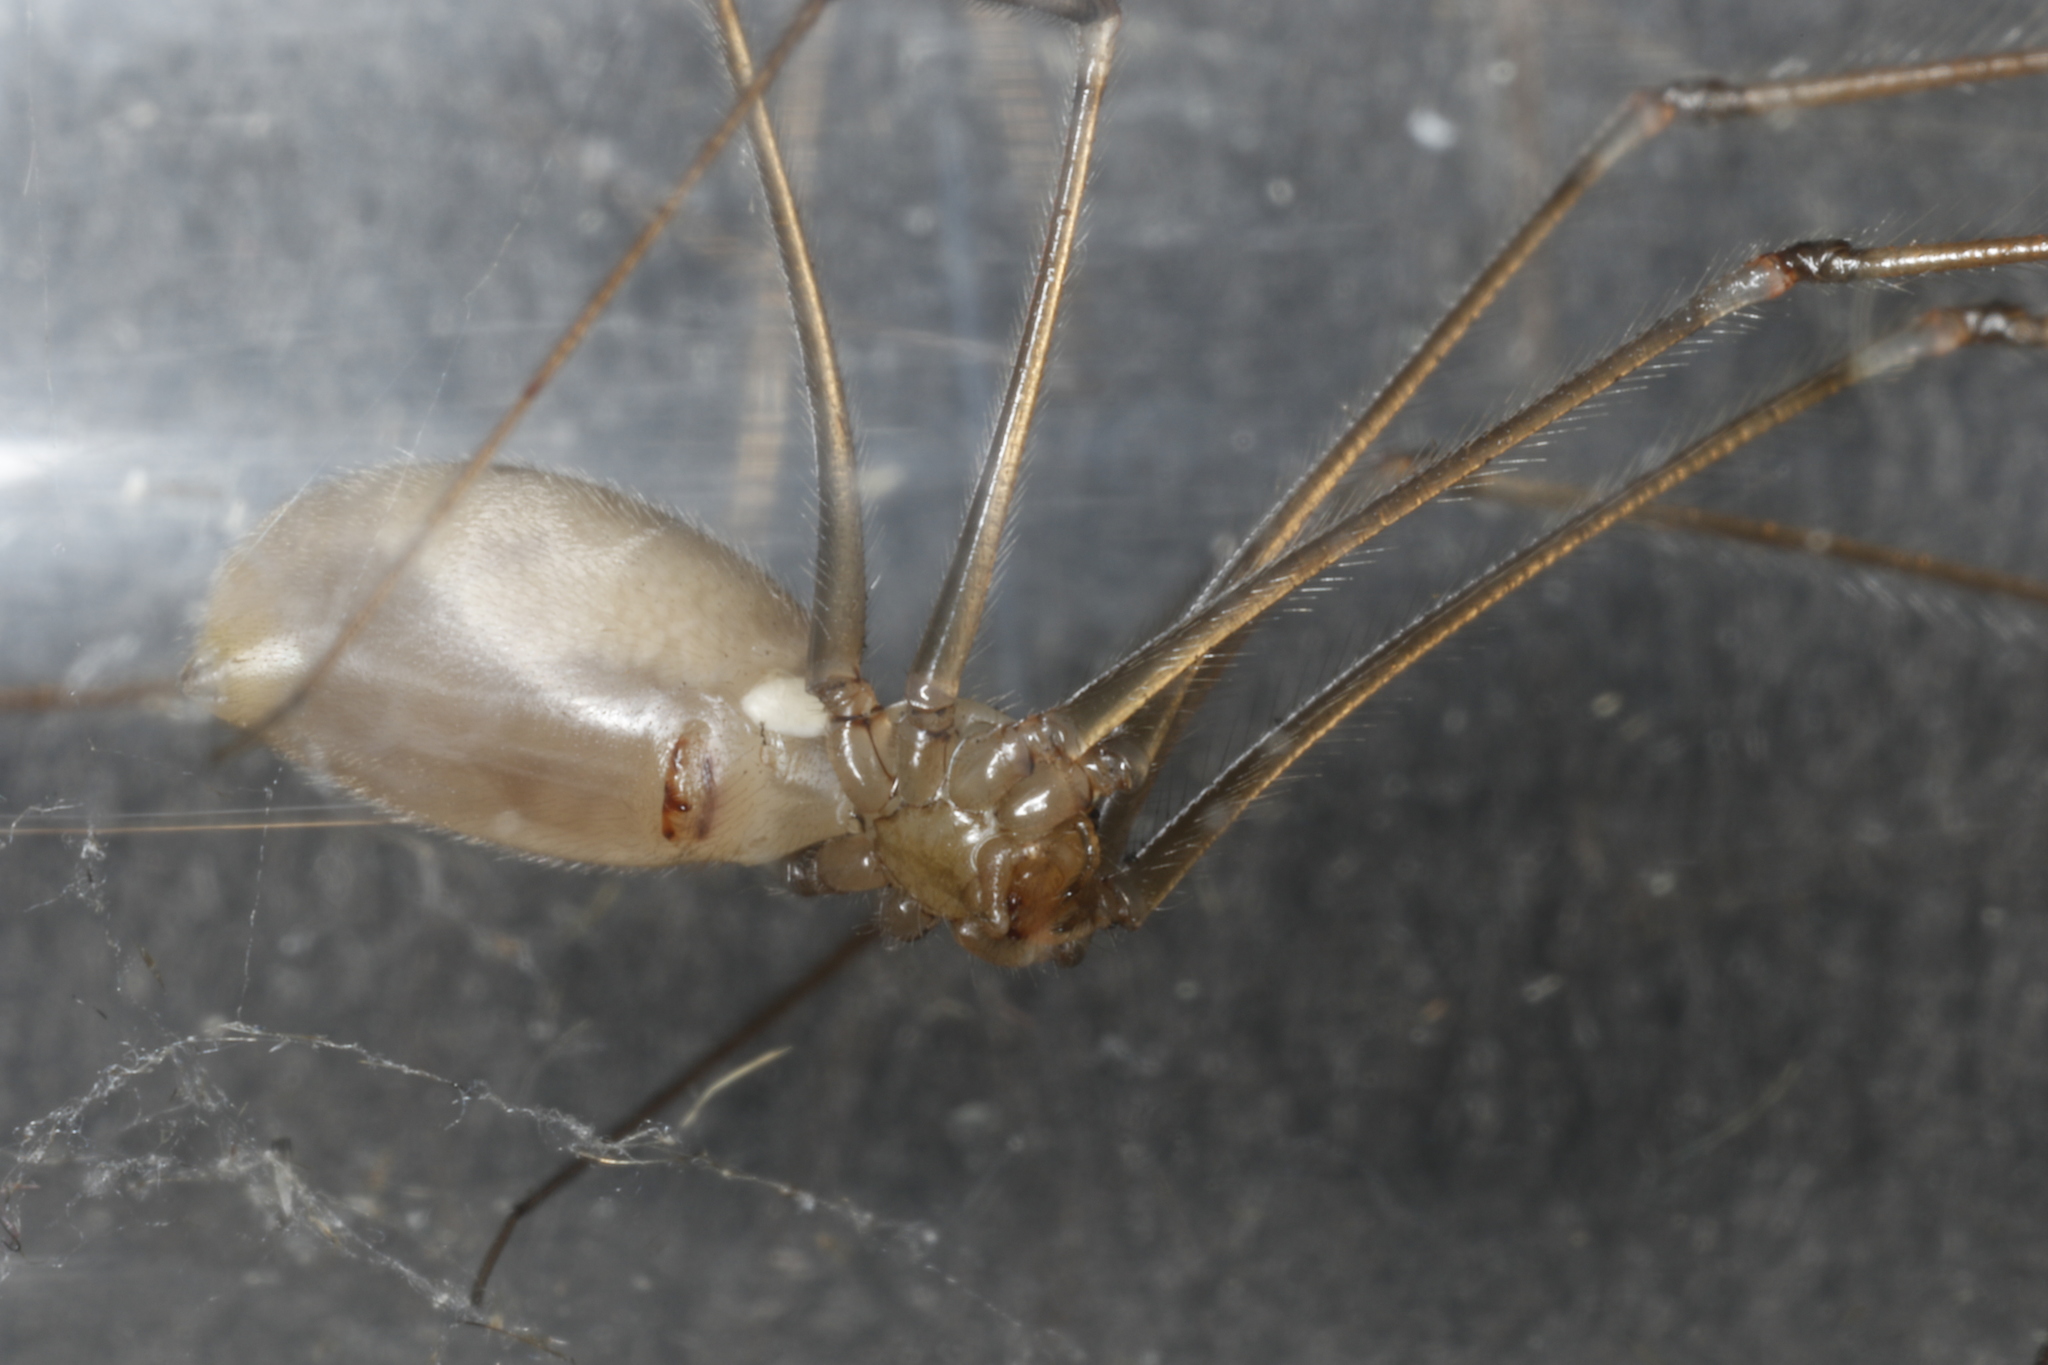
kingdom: Animalia
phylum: Arthropoda
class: Arachnida
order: Araneae
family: Pholcidae
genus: Pholcus
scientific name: Pholcus phalangioides
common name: Longbodied cellar spider
